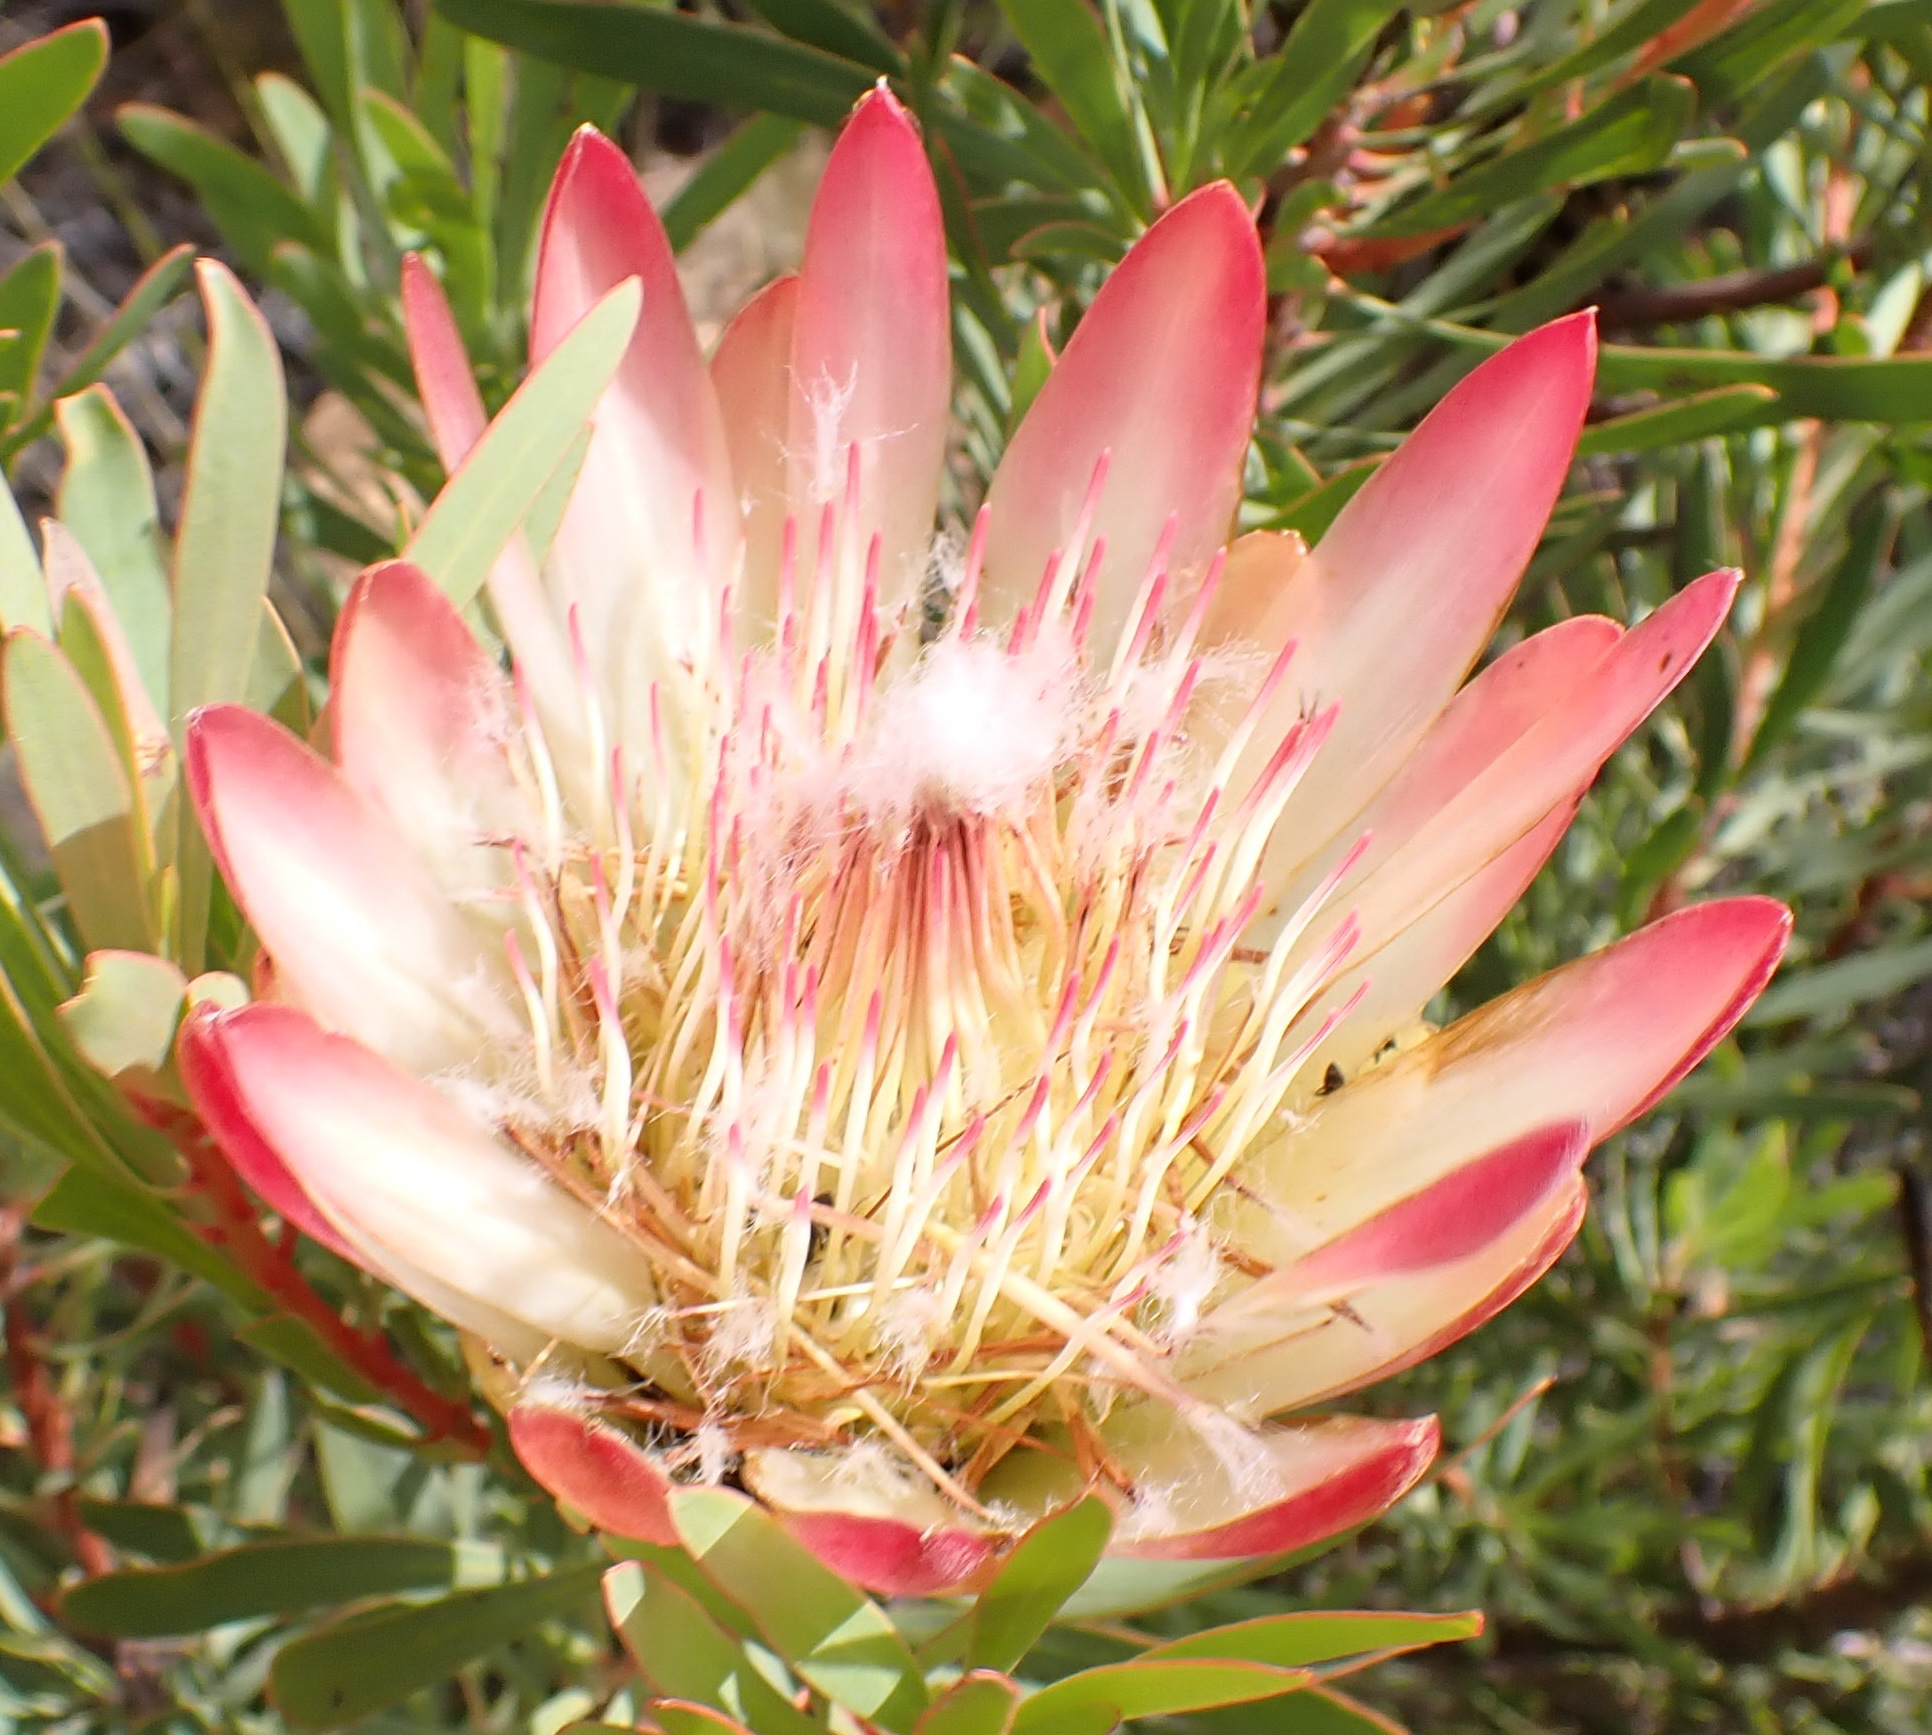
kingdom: Plantae
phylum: Tracheophyta
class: Magnoliopsida
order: Proteales
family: Proteaceae
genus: Protea
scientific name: Protea repens
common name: Sugarbush
